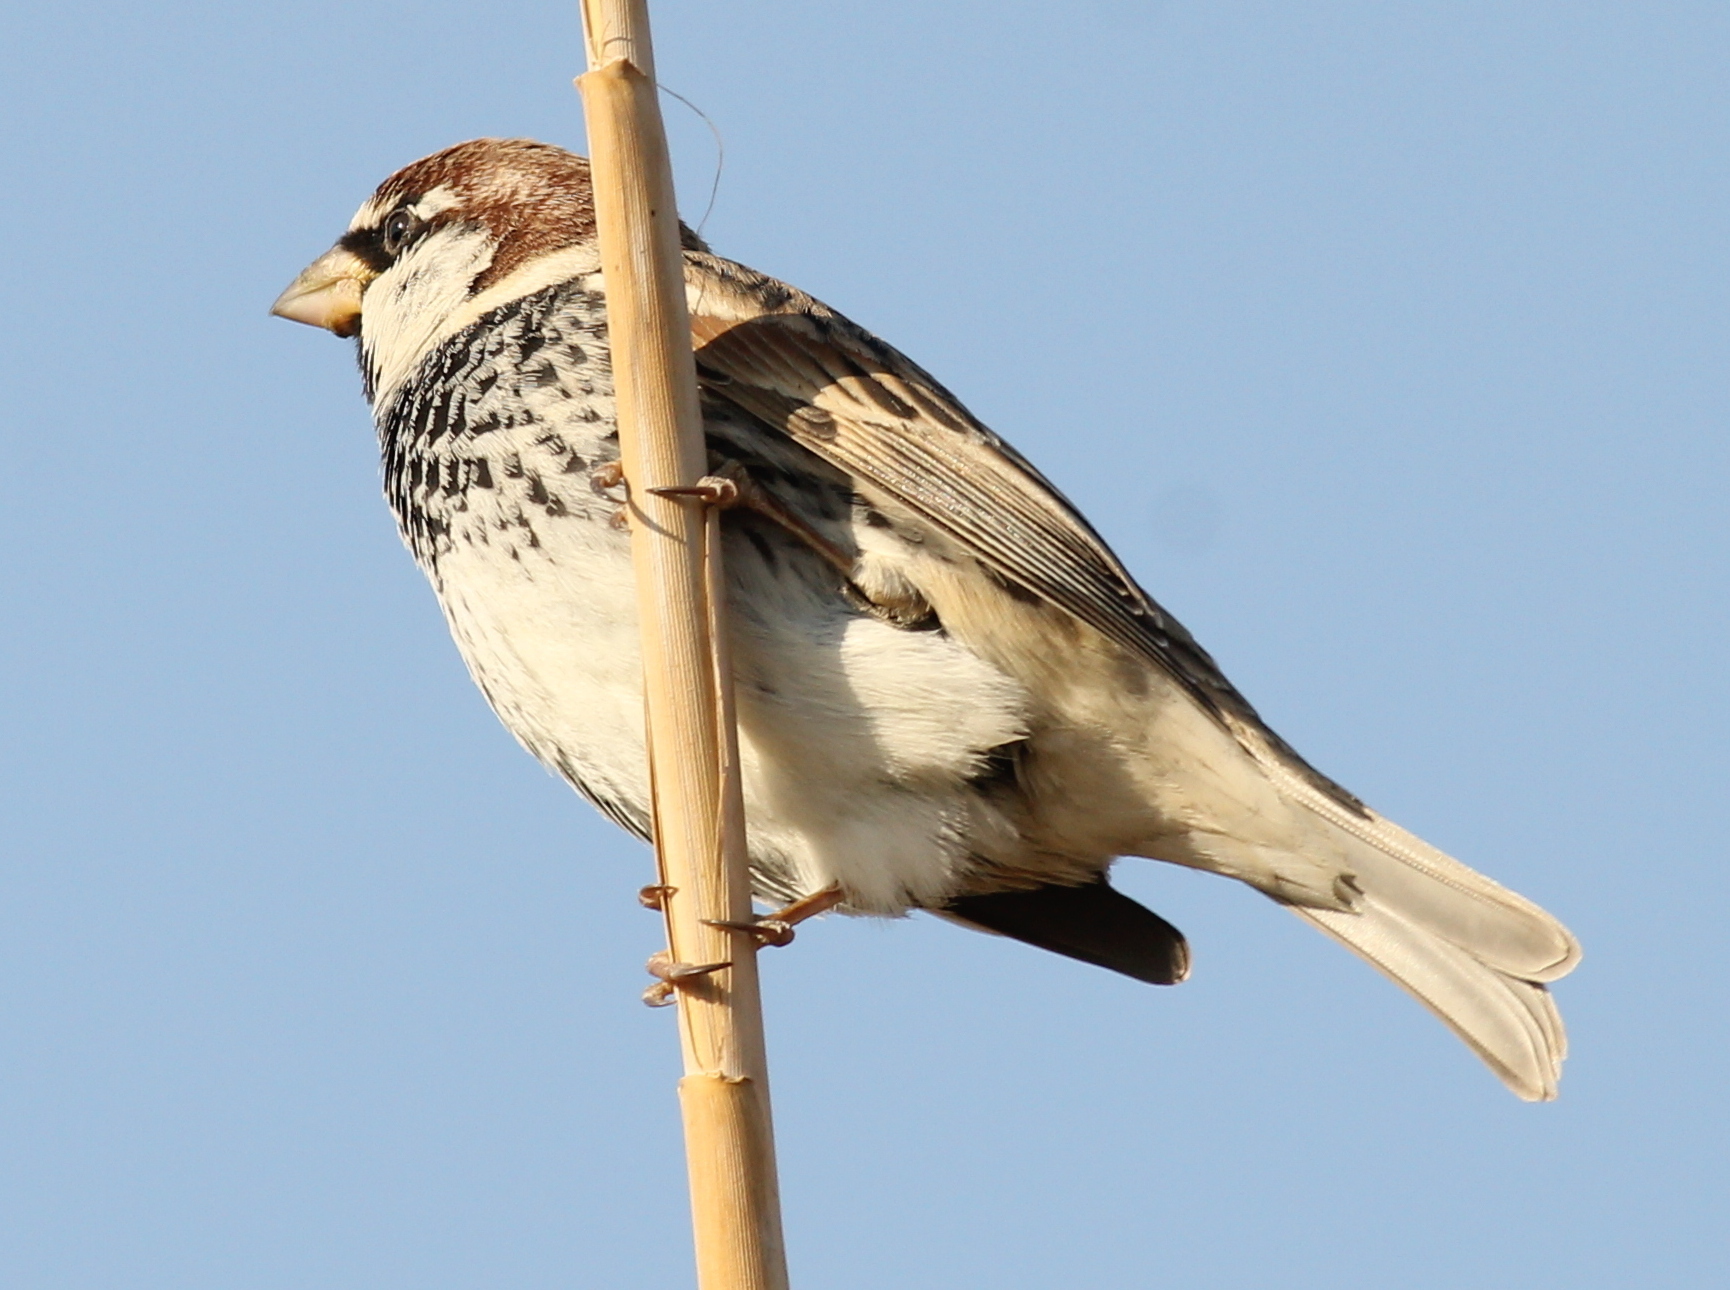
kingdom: Animalia
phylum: Chordata
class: Aves
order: Passeriformes
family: Passeridae
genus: Passer
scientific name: Passer hispaniolensis
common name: Spanish sparrow
